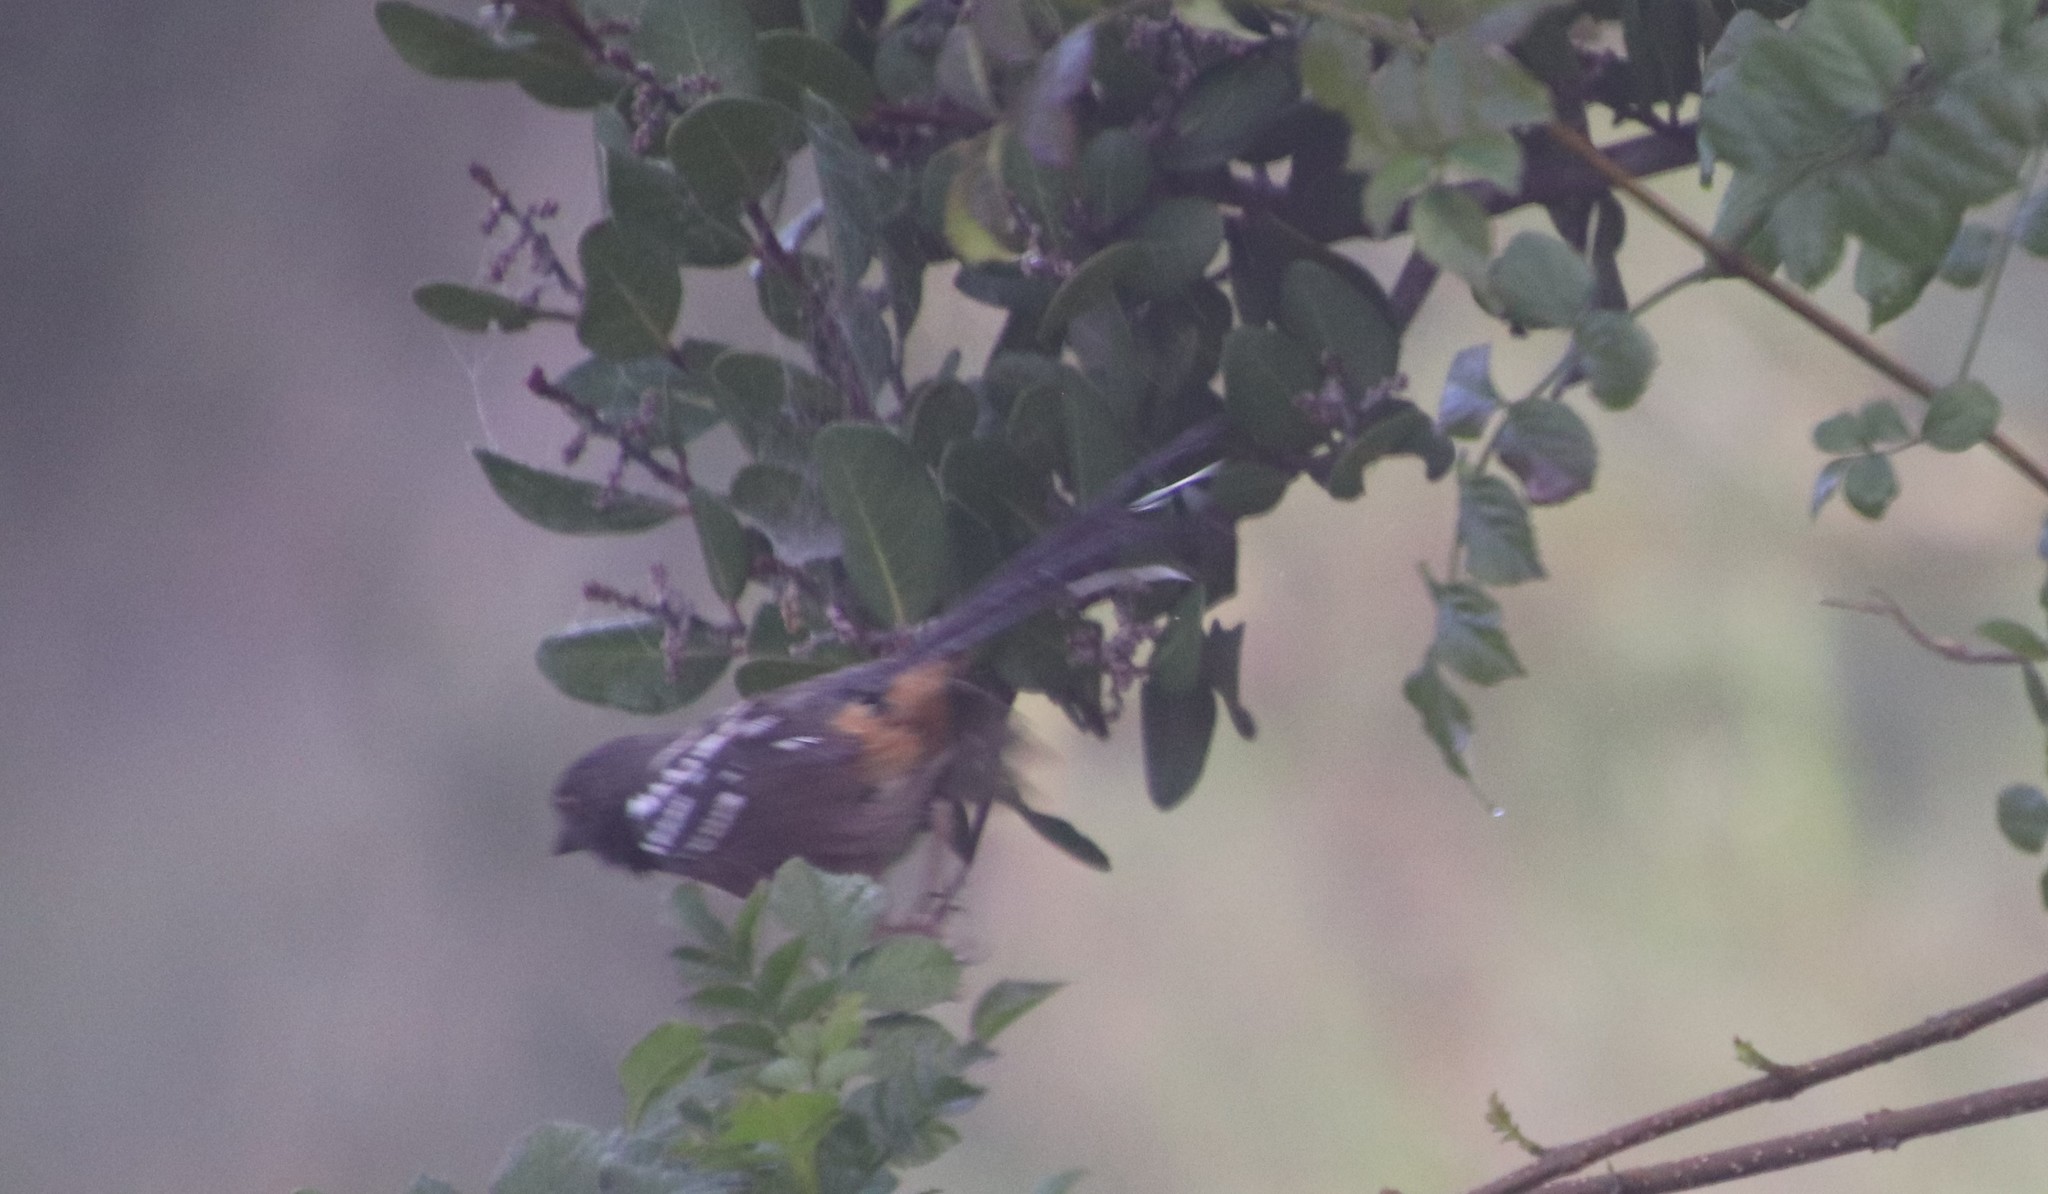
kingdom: Animalia
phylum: Chordata
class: Aves
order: Passeriformes
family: Passerellidae
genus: Pipilo
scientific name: Pipilo maculatus
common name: Spotted towhee
